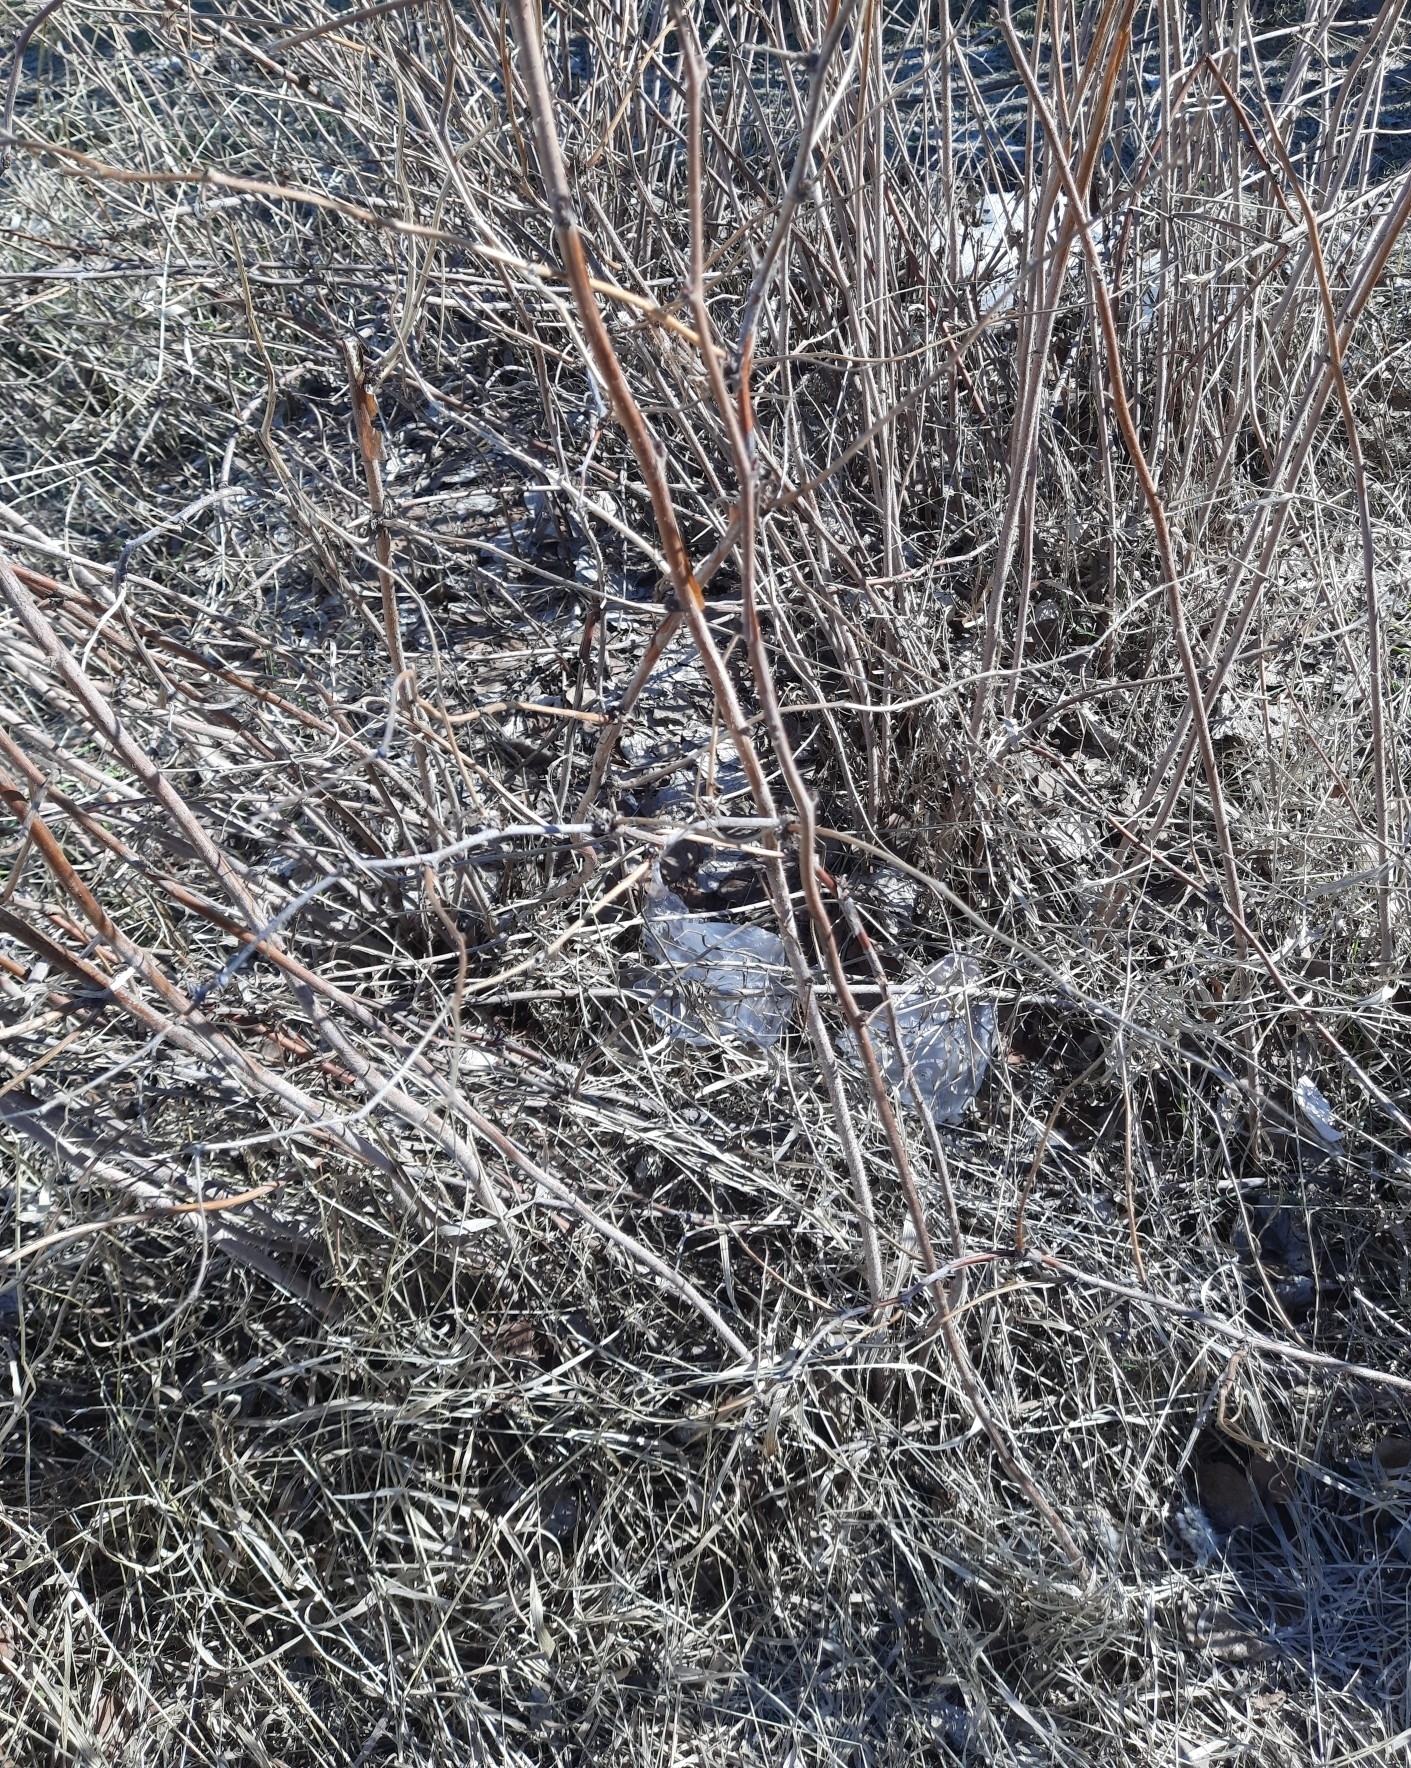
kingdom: Plantae
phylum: Tracheophyta
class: Magnoliopsida
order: Rosales
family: Rosaceae
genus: Rubus
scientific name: Rubus idaeus
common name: Raspberry
